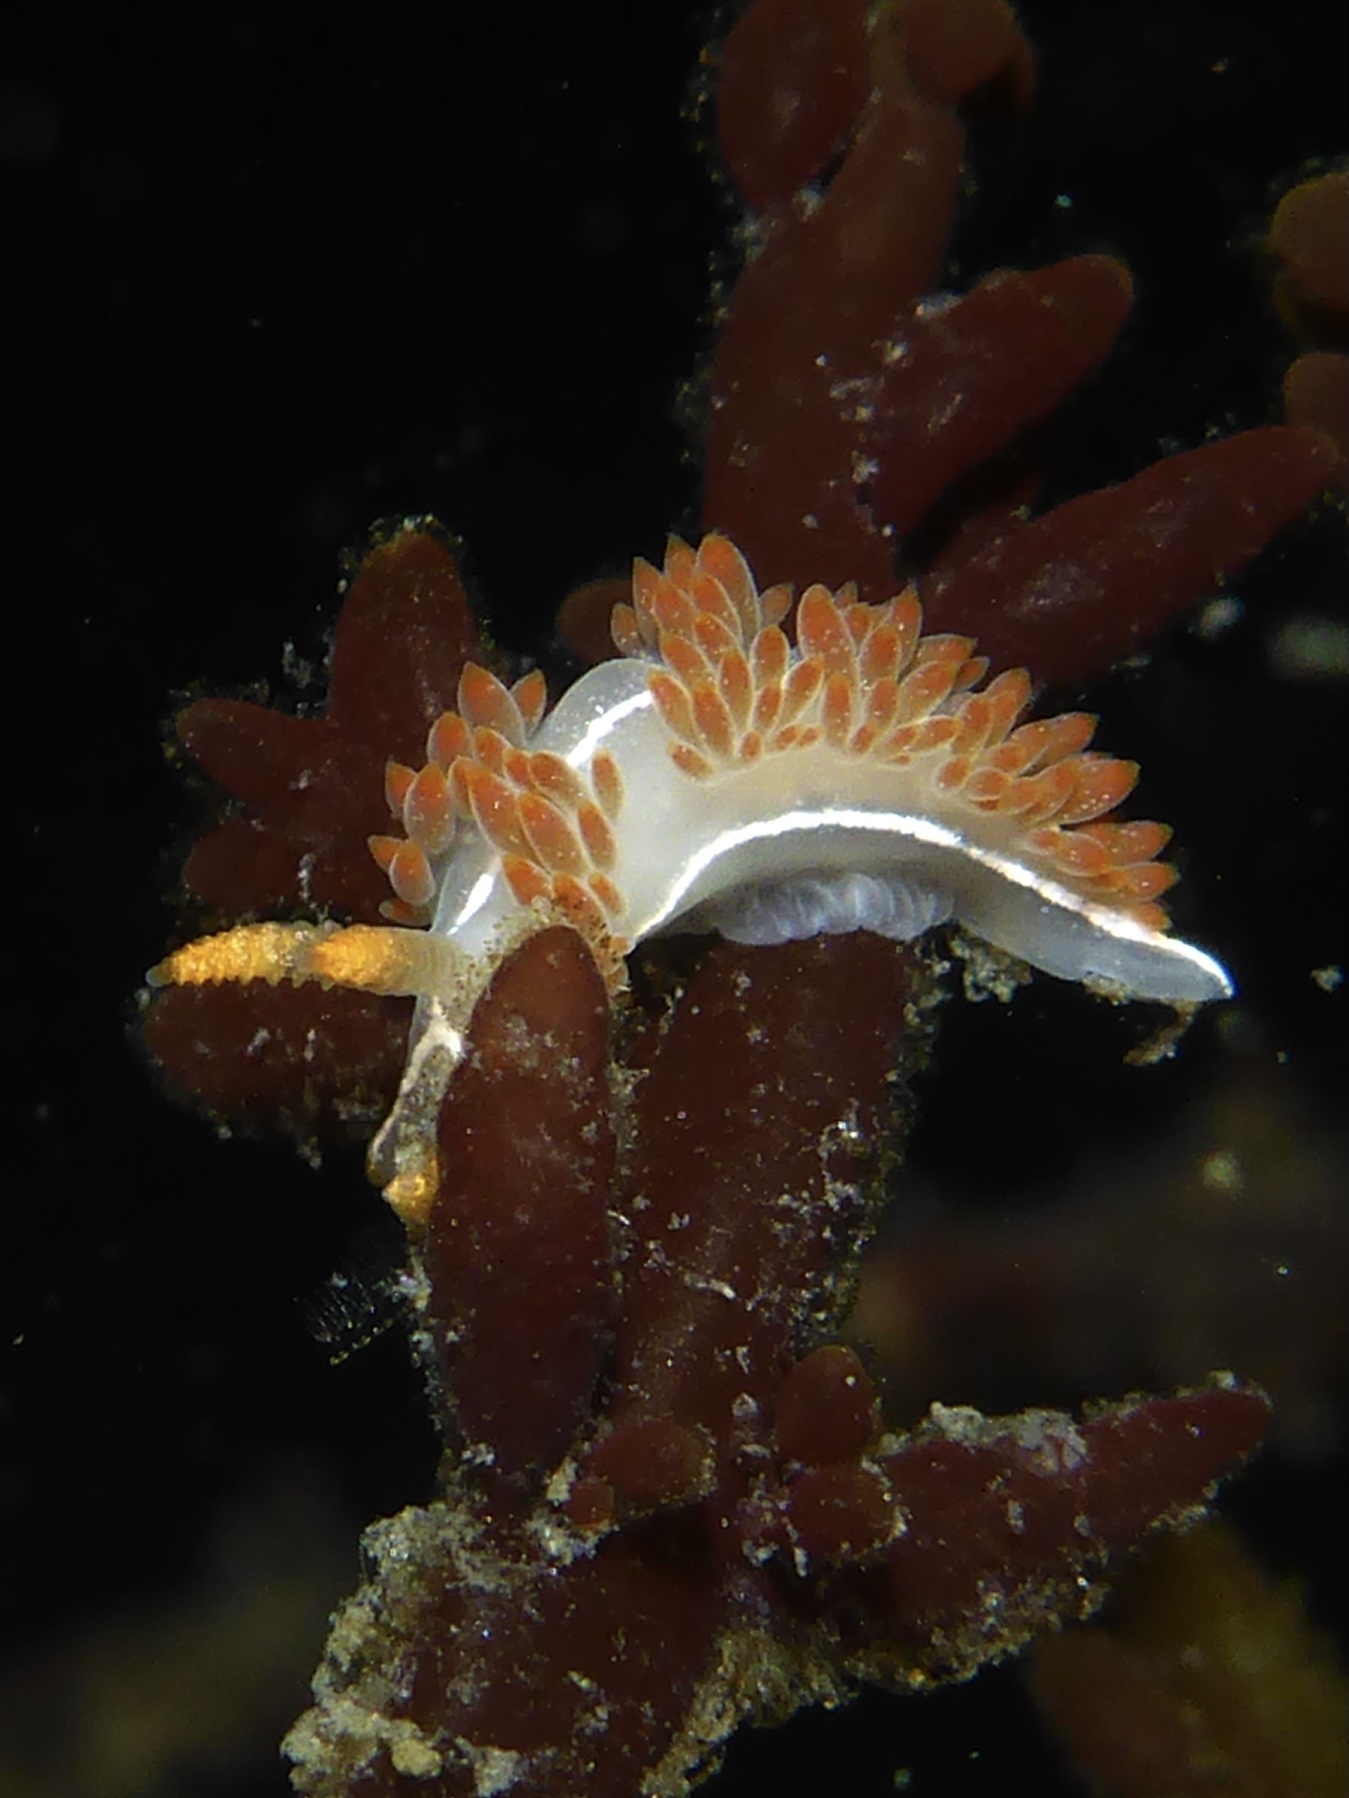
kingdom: Animalia
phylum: Mollusca
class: Gastropoda
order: Nudibranchia
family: Coryphellidae
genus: Coryphella
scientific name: Coryphella trilineata
